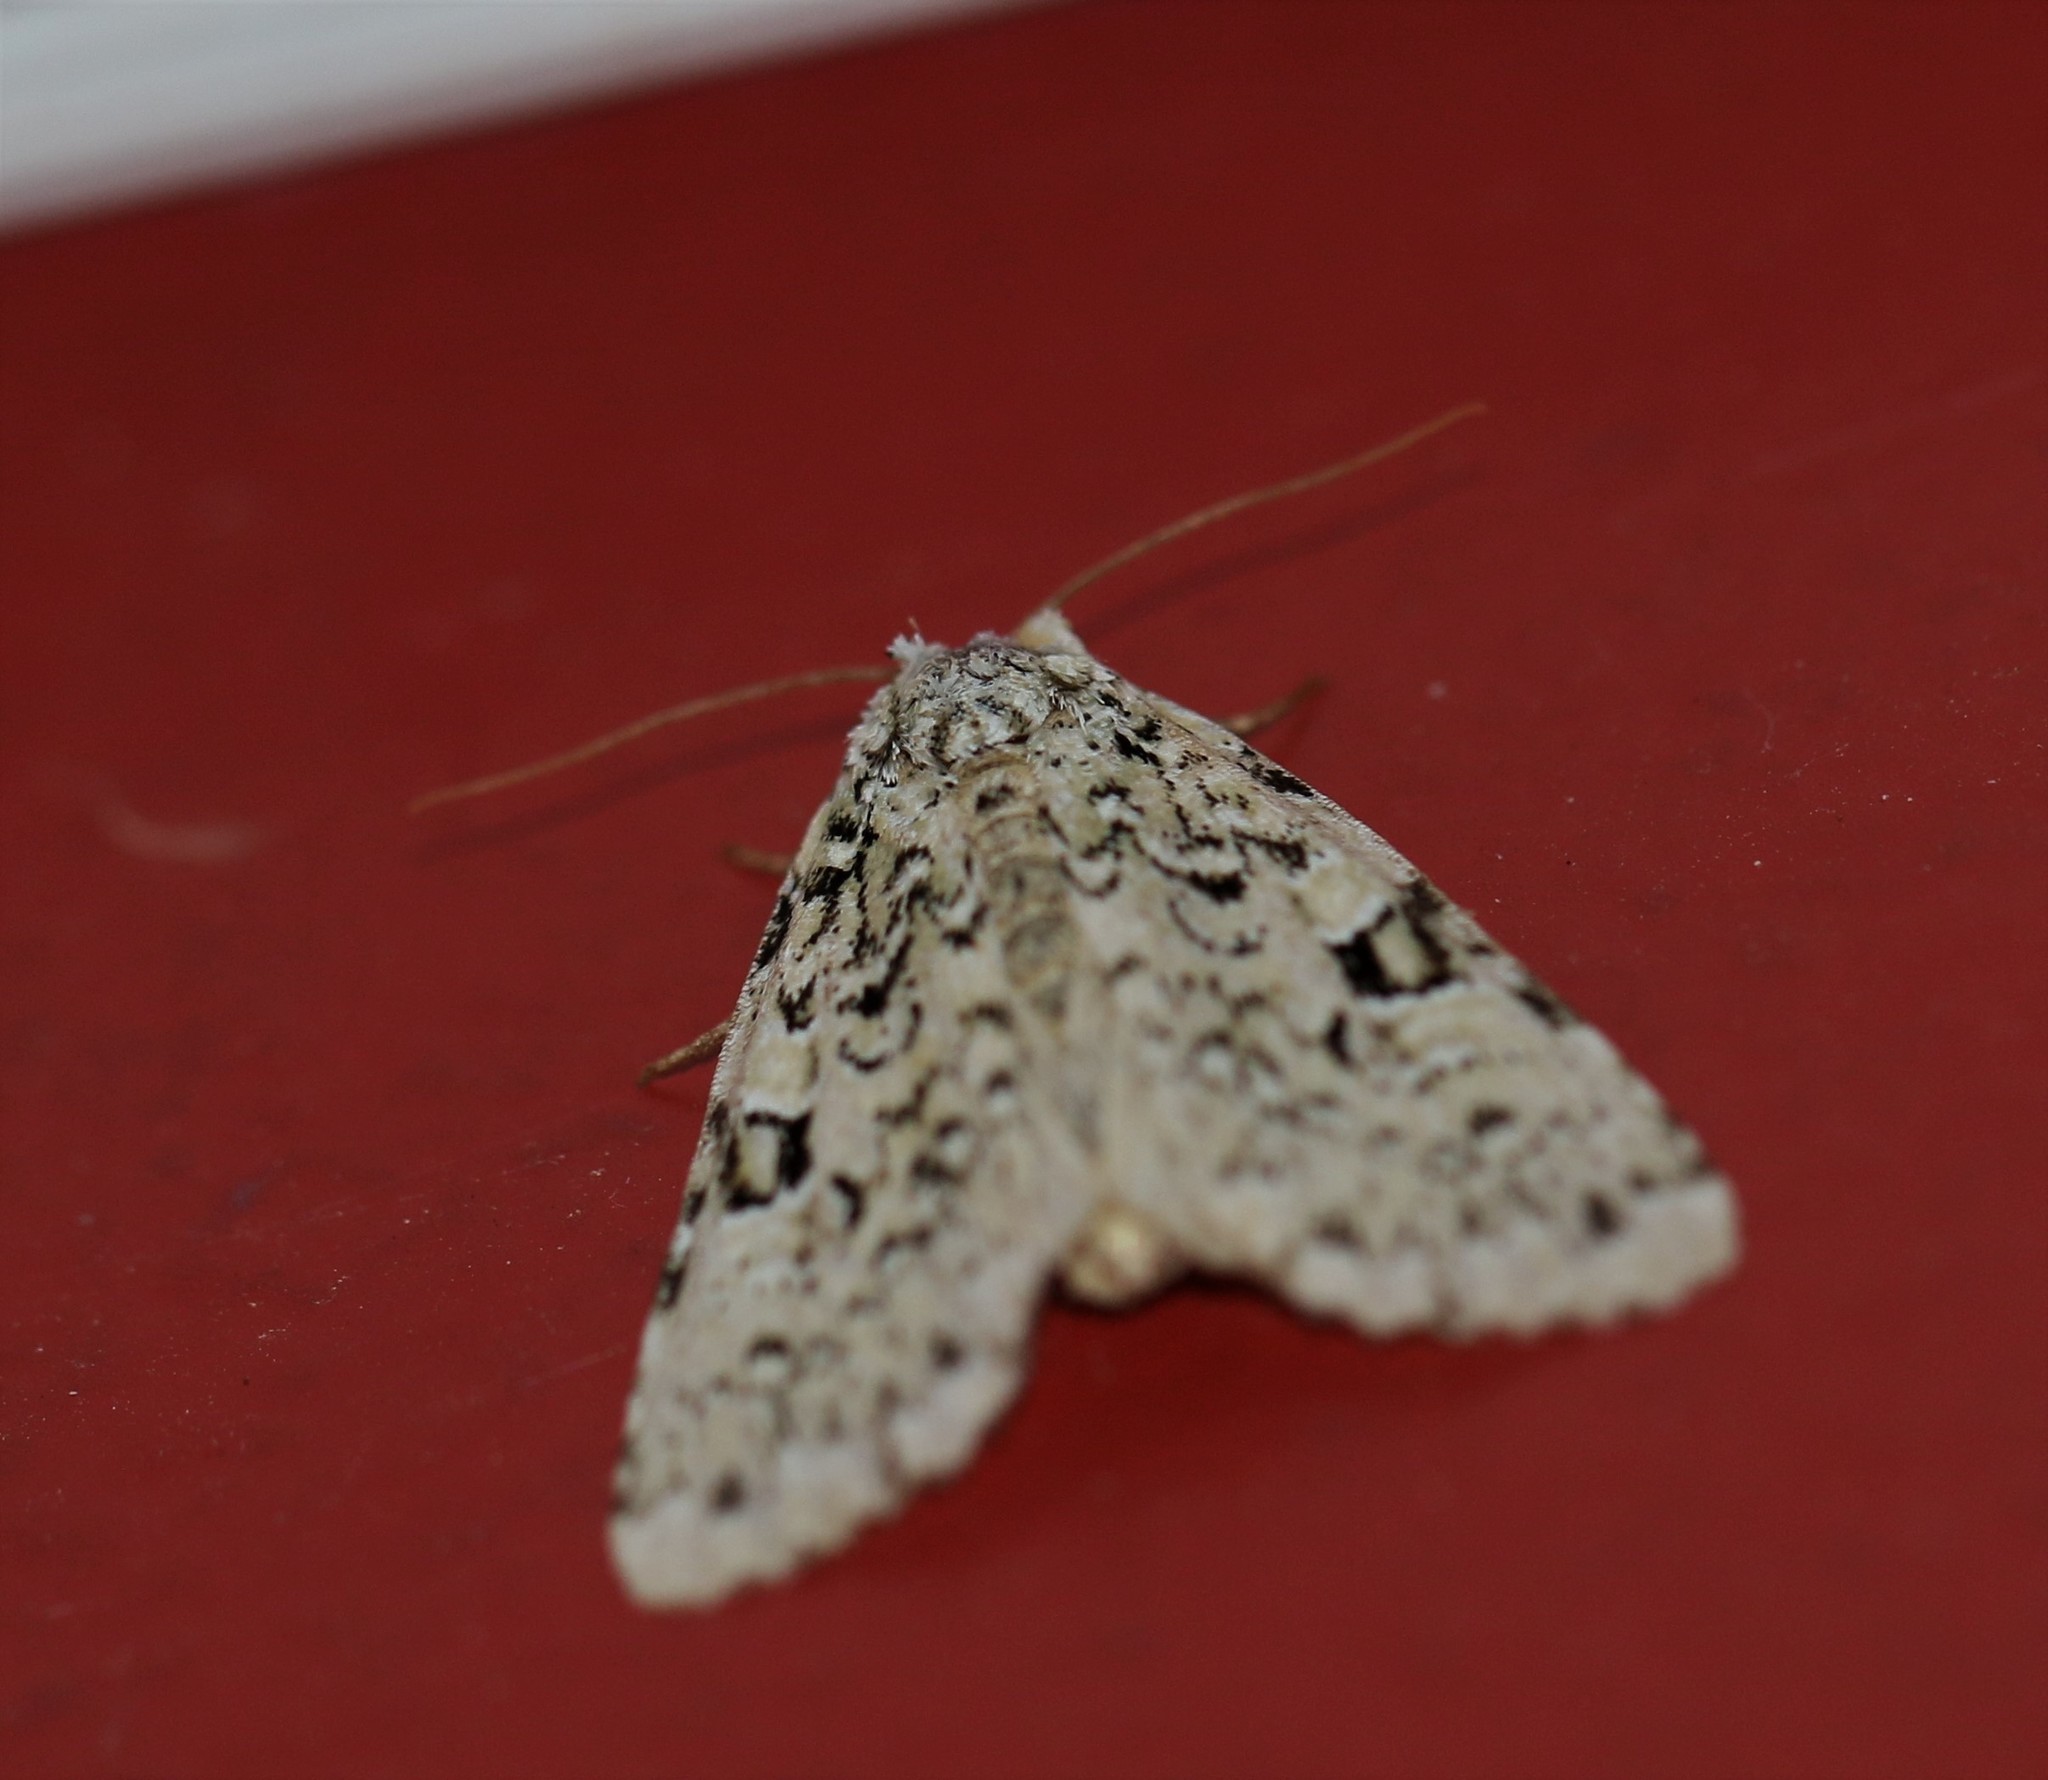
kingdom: Animalia
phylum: Arthropoda
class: Insecta
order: Lepidoptera
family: Noctuidae
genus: Leuconycta
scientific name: Leuconycta diphteroides
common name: Green leuconycta moth
